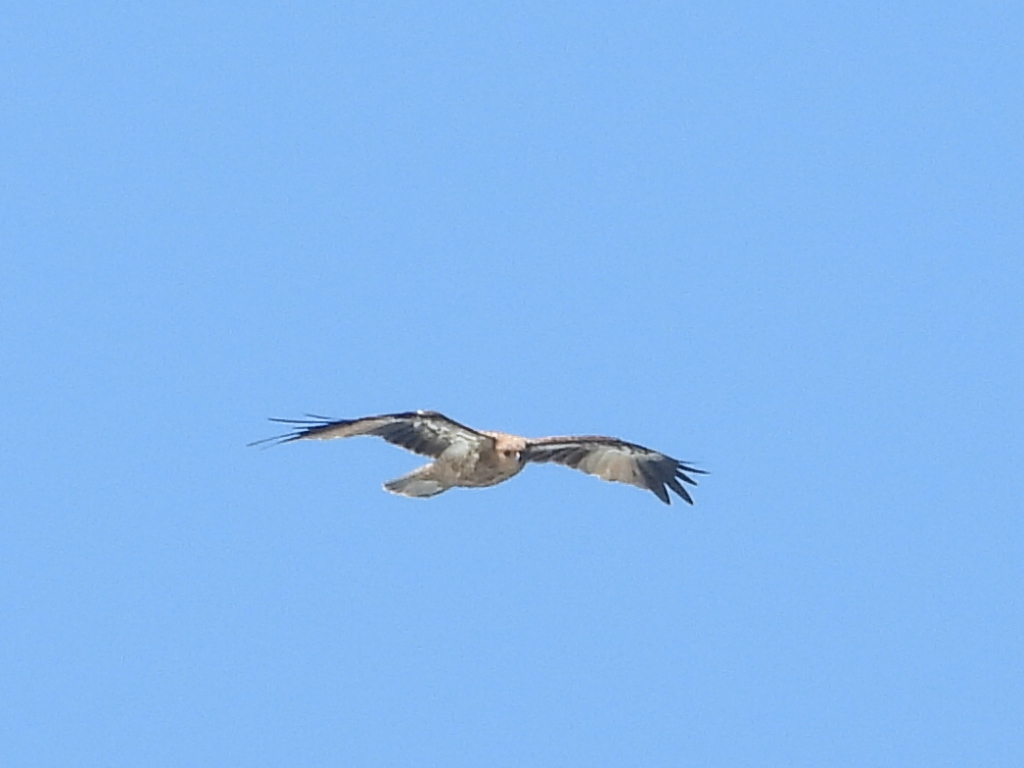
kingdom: Animalia
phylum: Chordata
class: Aves
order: Accipitriformes
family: Accipitridae
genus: Haliastur
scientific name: Haliastur sphenurus
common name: Whistling kite
